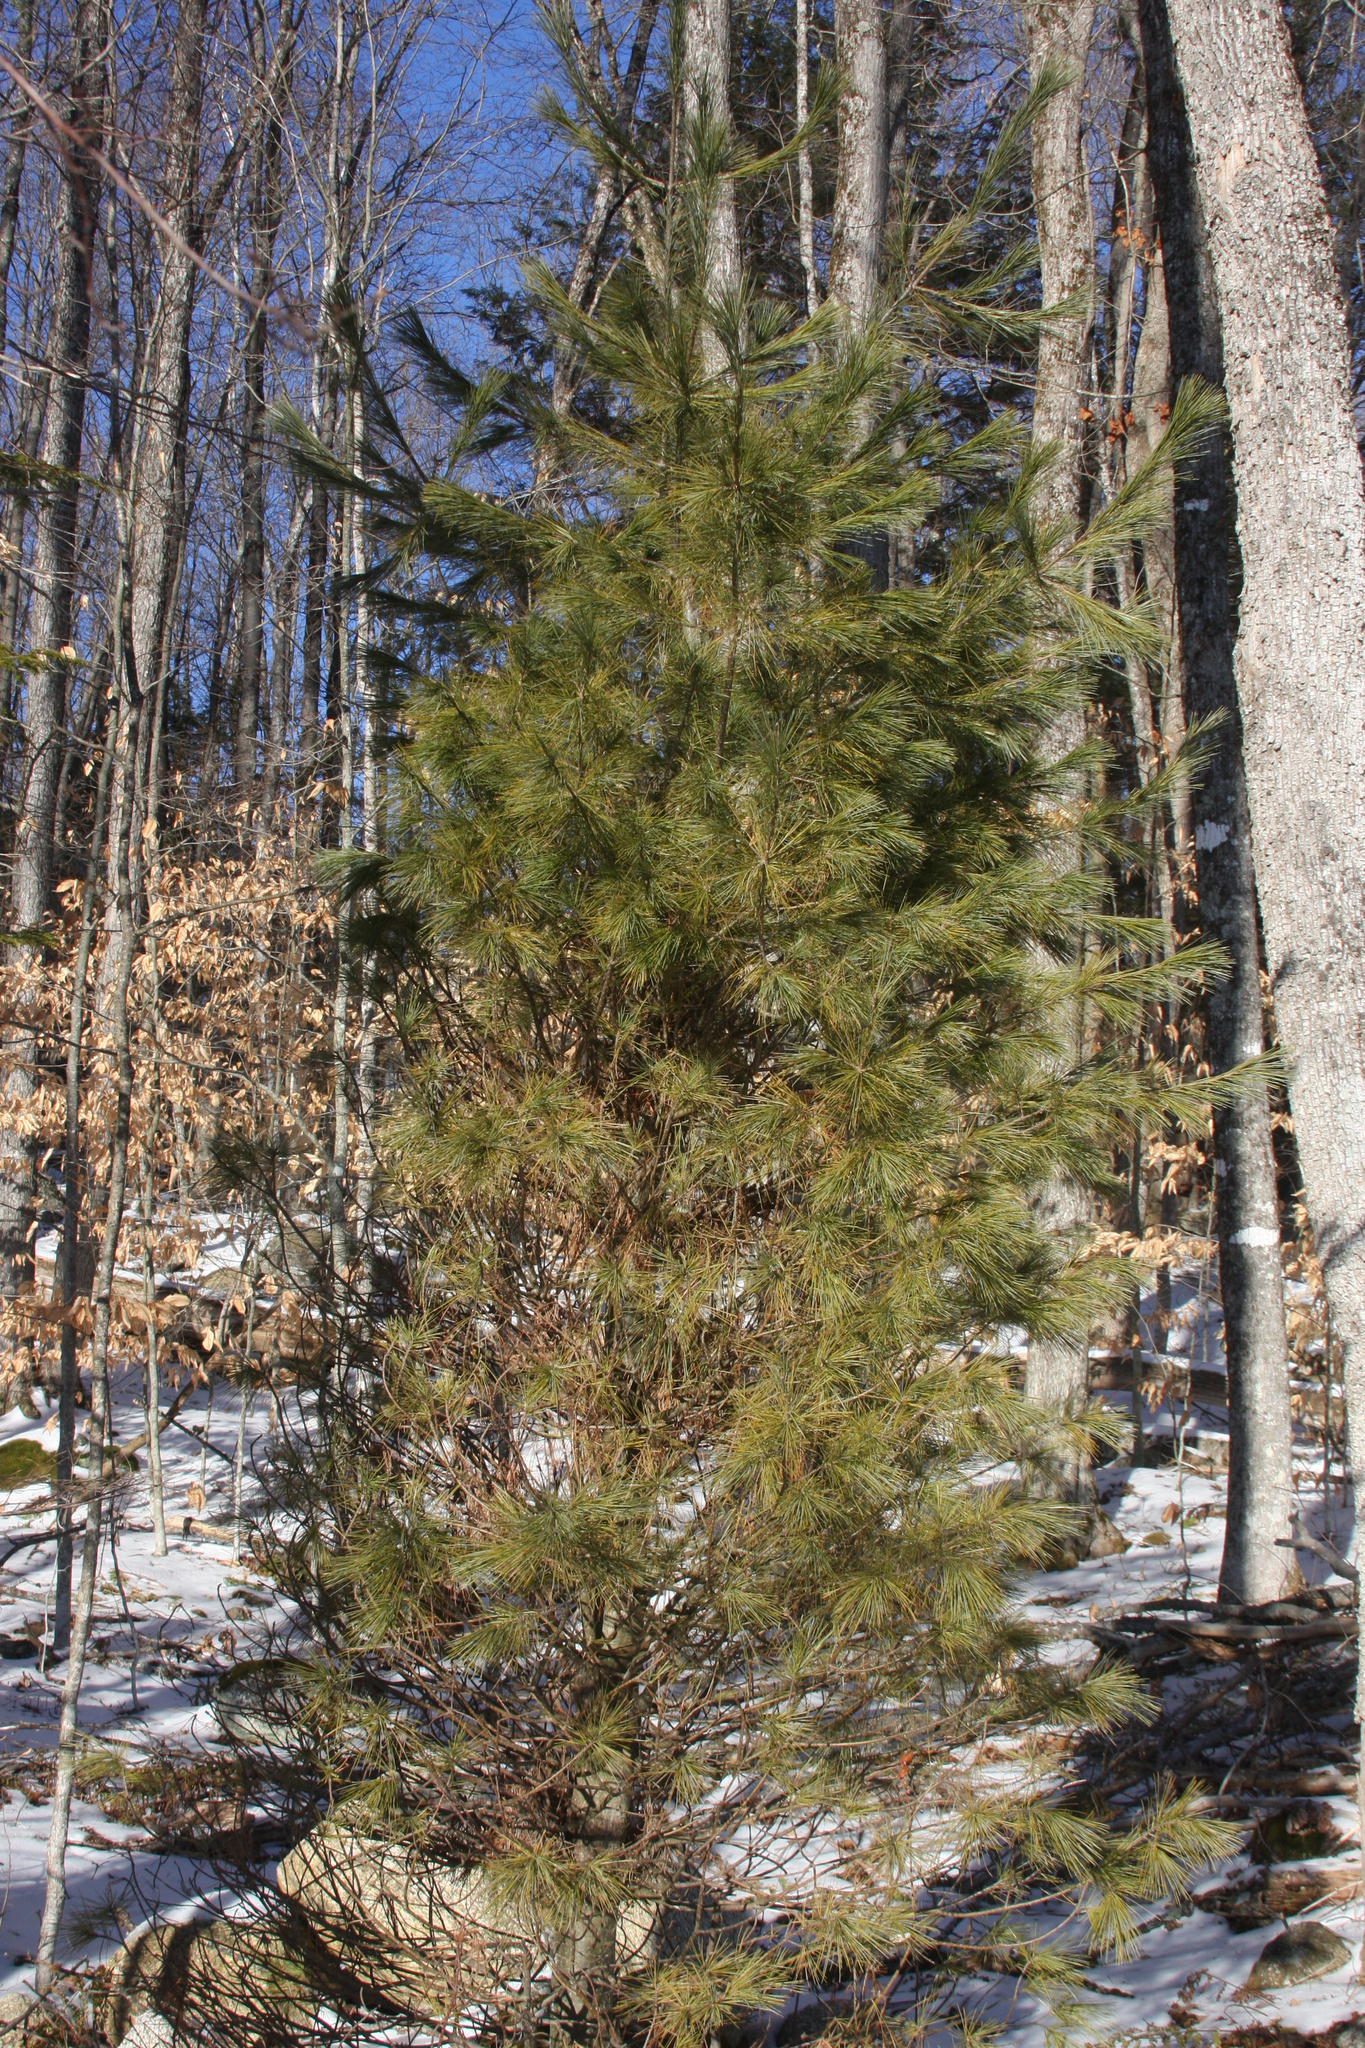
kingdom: Plantae
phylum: Tracheophyta
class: Pinopsida
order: Pinales
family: Pinaceae
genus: Pinus
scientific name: Pinus strobus
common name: Weymouth pine
